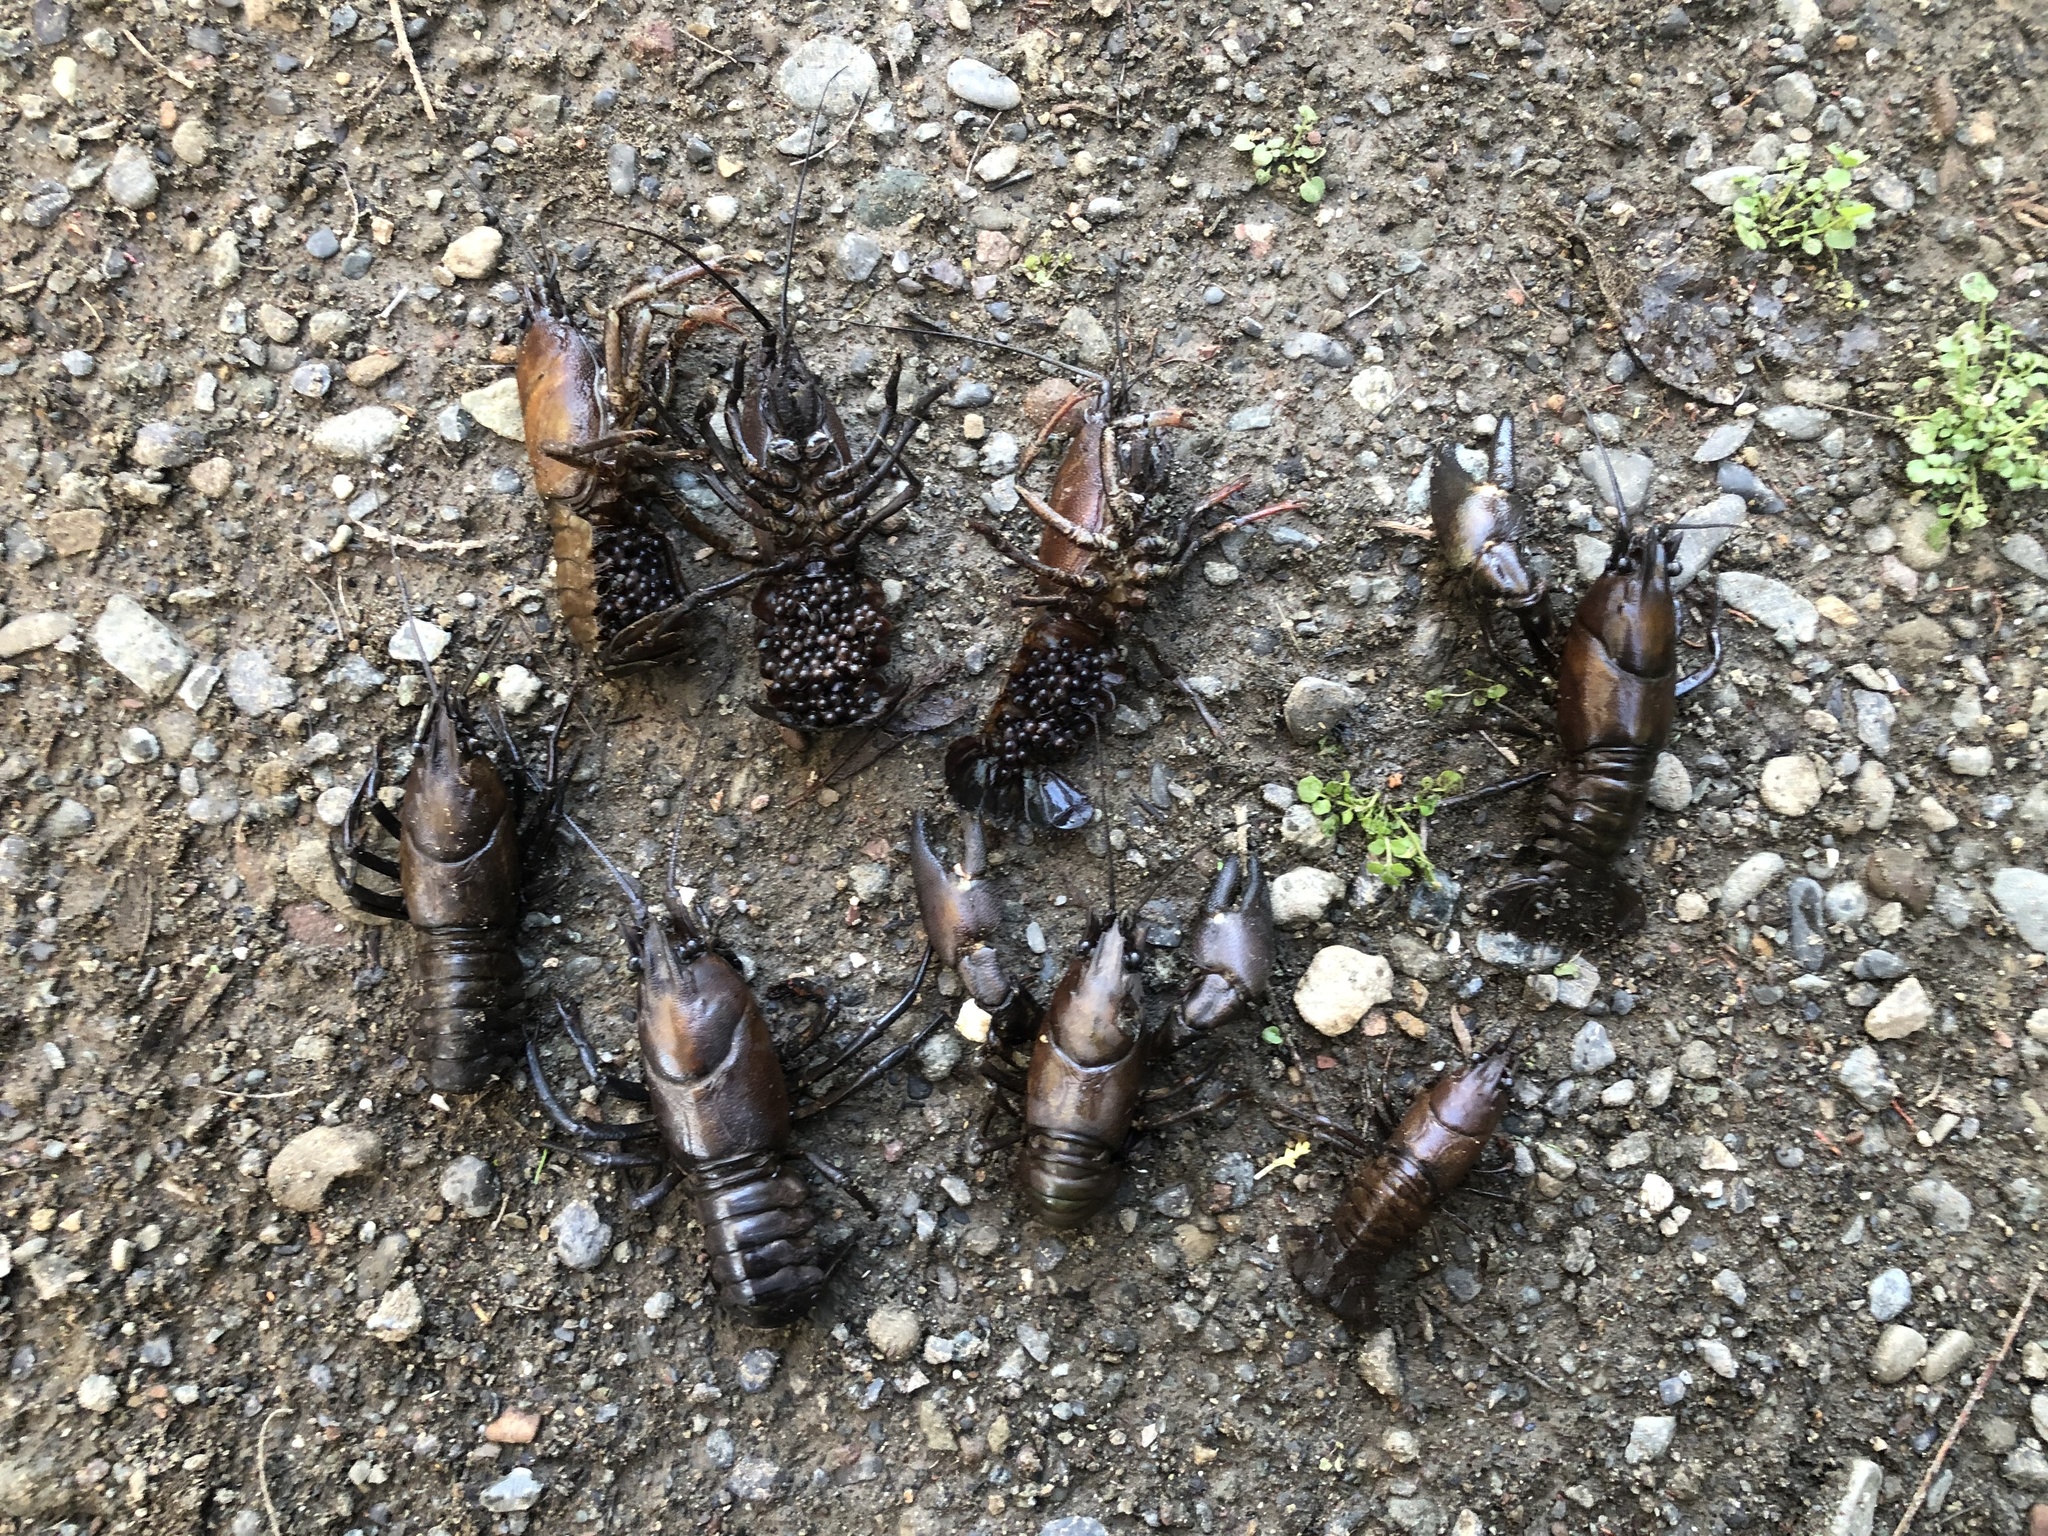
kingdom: Animalia
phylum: Arthropoda
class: Malacostraca
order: Decapoda
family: Astacidae
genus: Pacifastacus
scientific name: Pacifastacus leniusculus
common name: Signal crayfish
